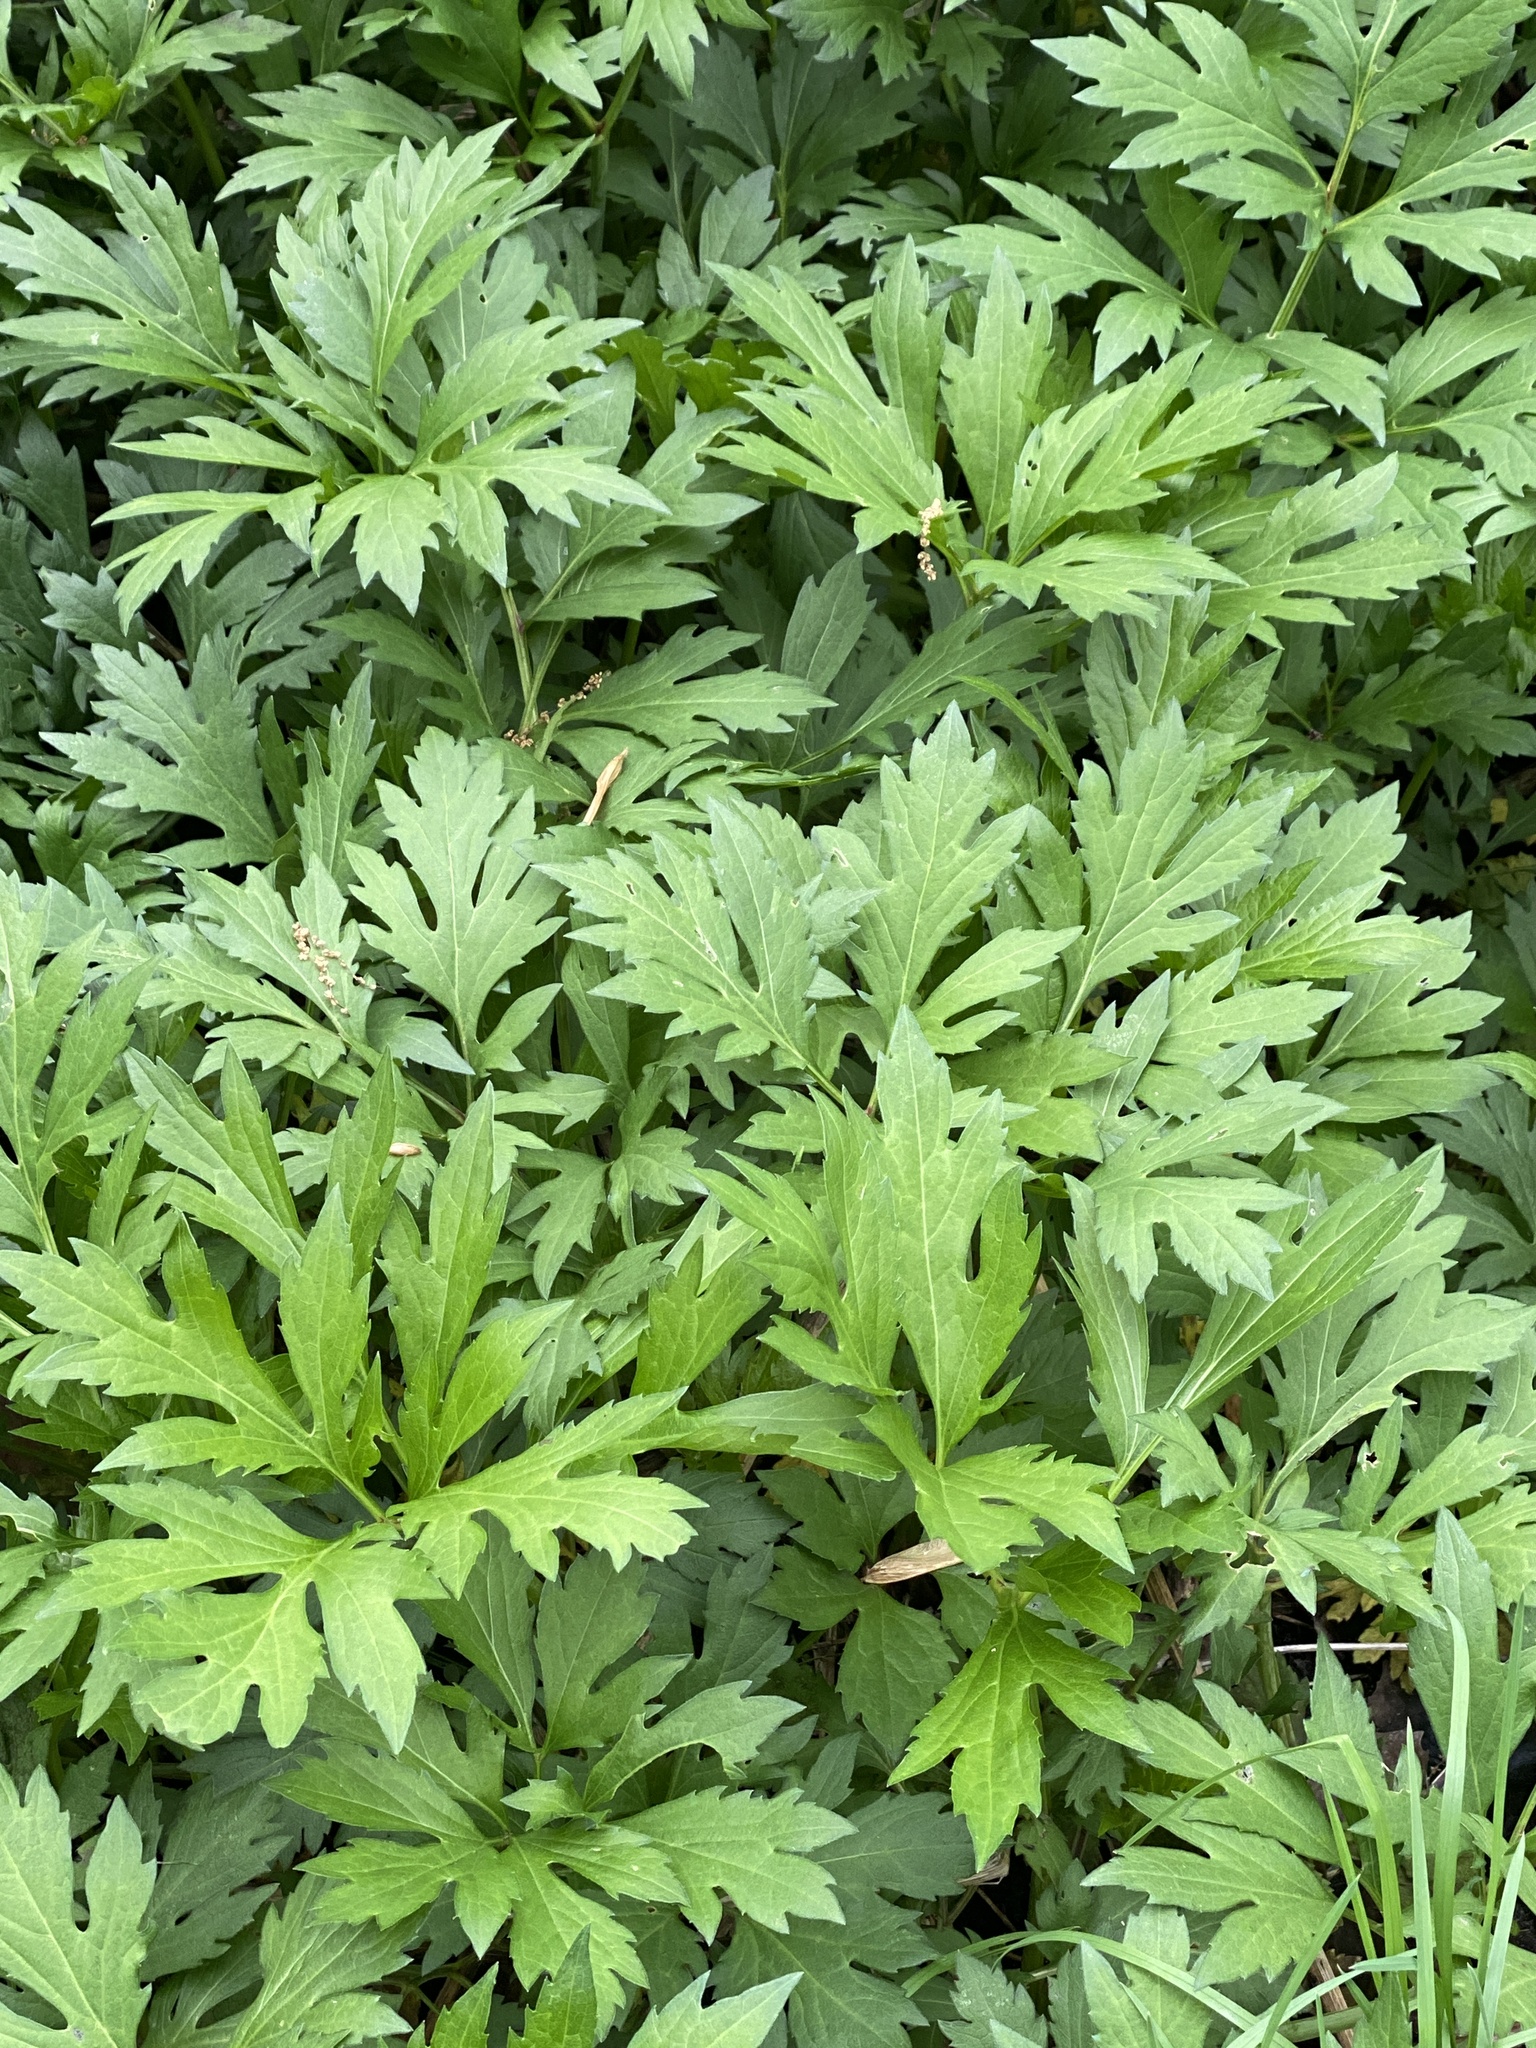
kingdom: Plantae
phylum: Tracheophyta
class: Magnoliopsida
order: Asterales
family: Asteraceae
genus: Rudbeckia
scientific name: Rudbeckia laciniata
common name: Coneflower
